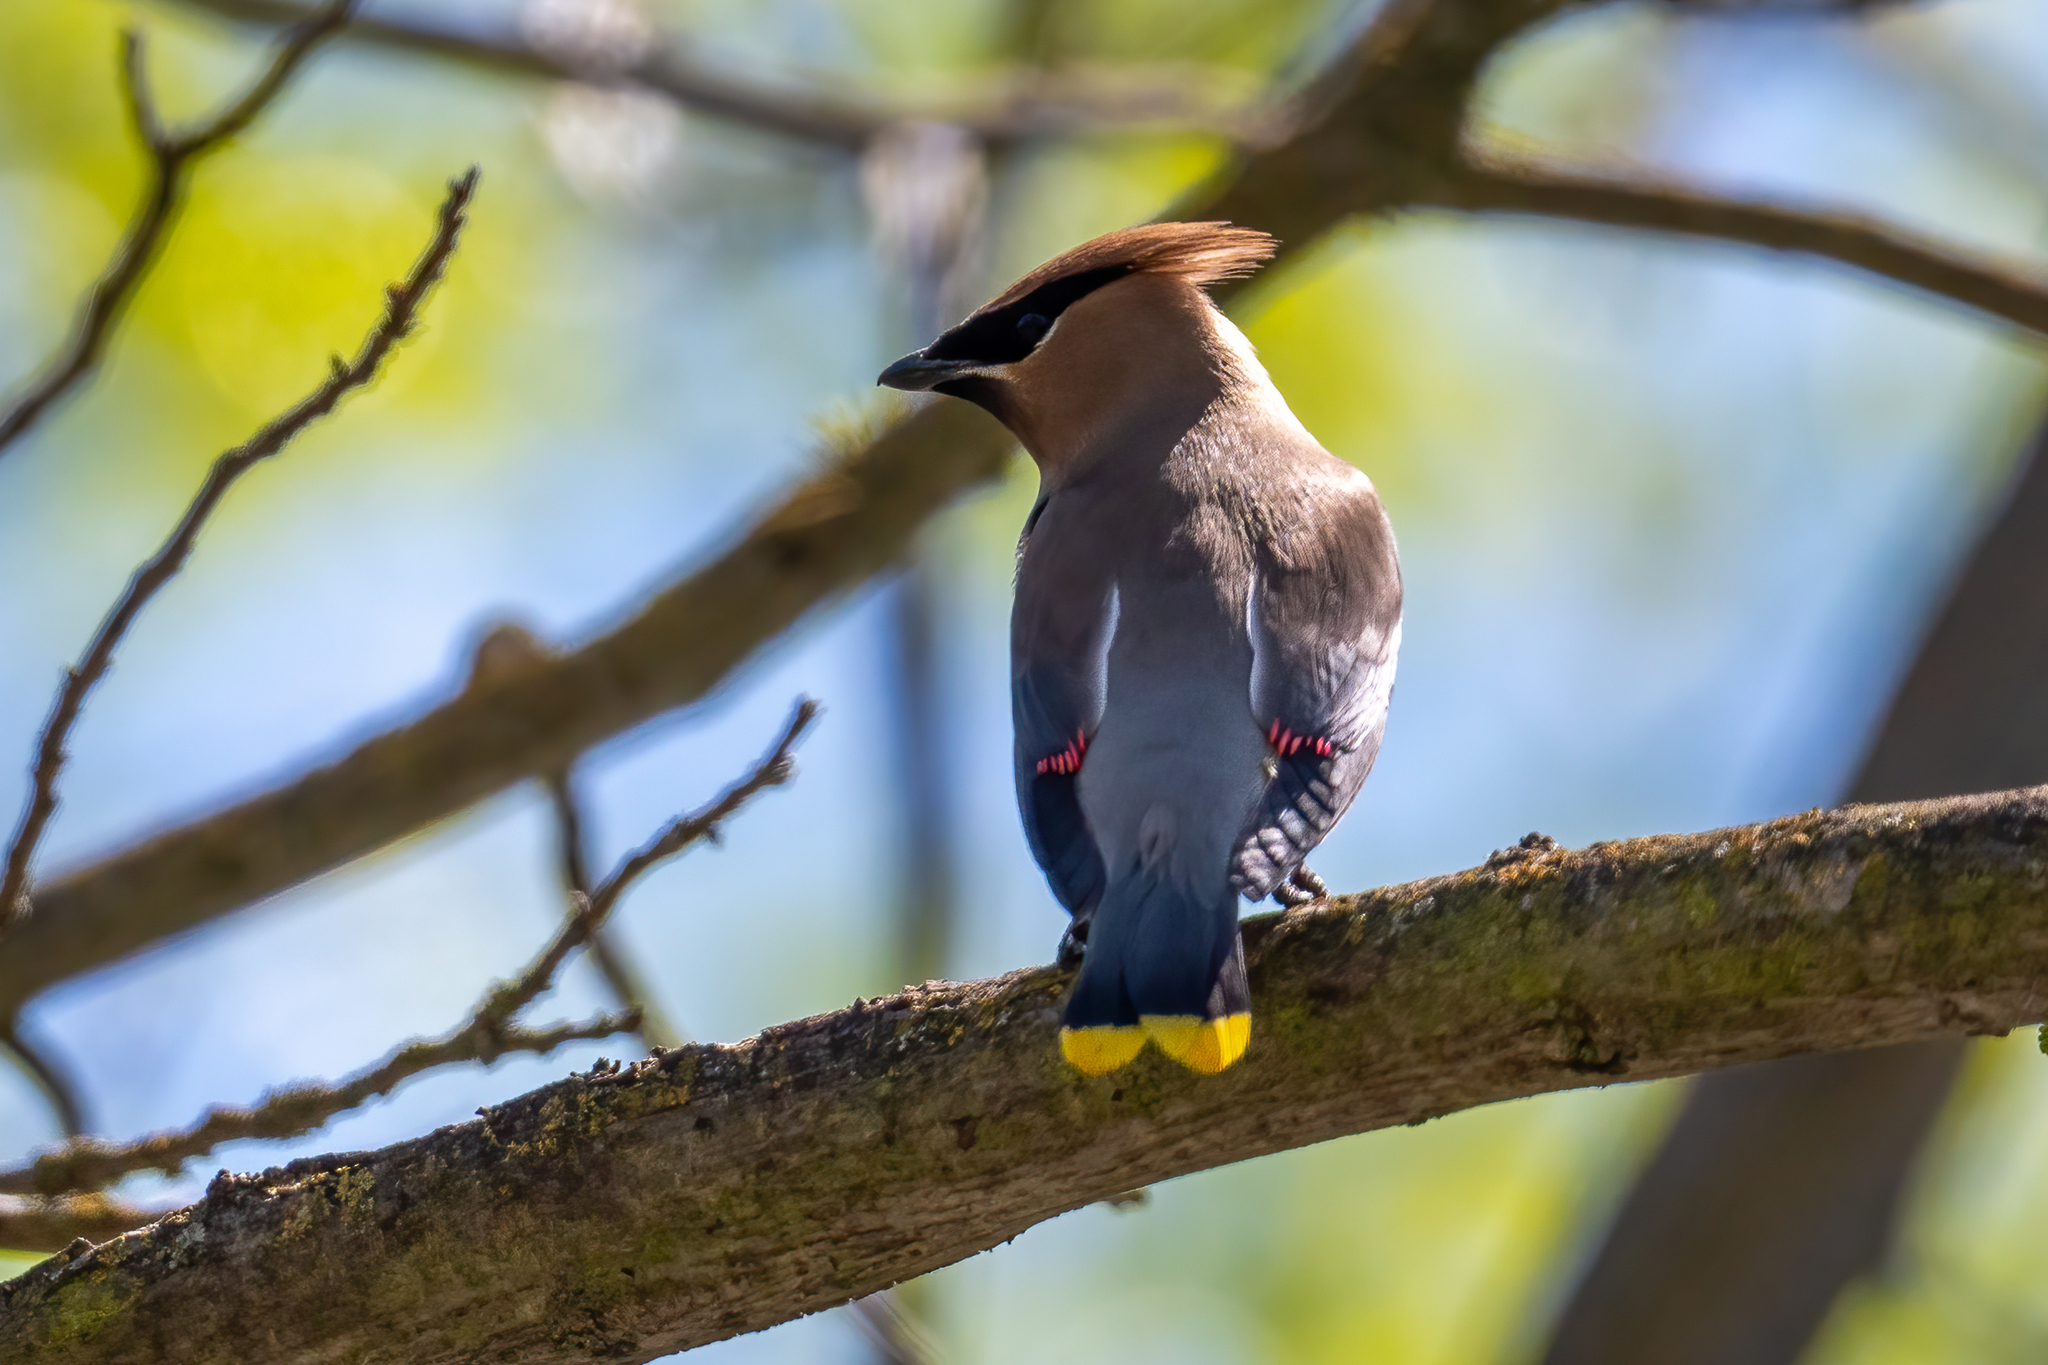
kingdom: Animalia
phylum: Chordata
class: Aves
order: Passeriformes
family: Bombycillidae
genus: Bombycilla
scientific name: Bombycilla cedrorum
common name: Cedar waxwing
